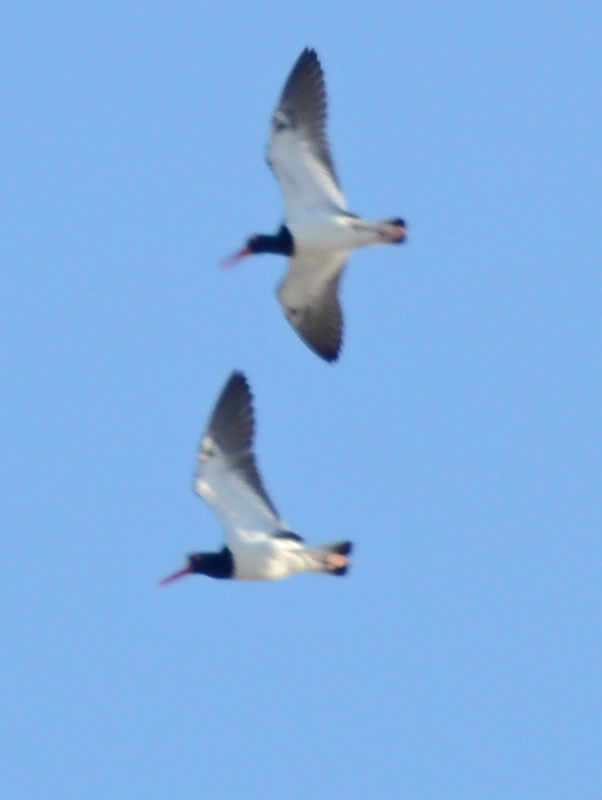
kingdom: Animalia
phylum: Chordata
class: Aves
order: Charadriiformes
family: Haematopodidae
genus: Haematopus
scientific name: Haematopus palliatus
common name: American oystercatcher
